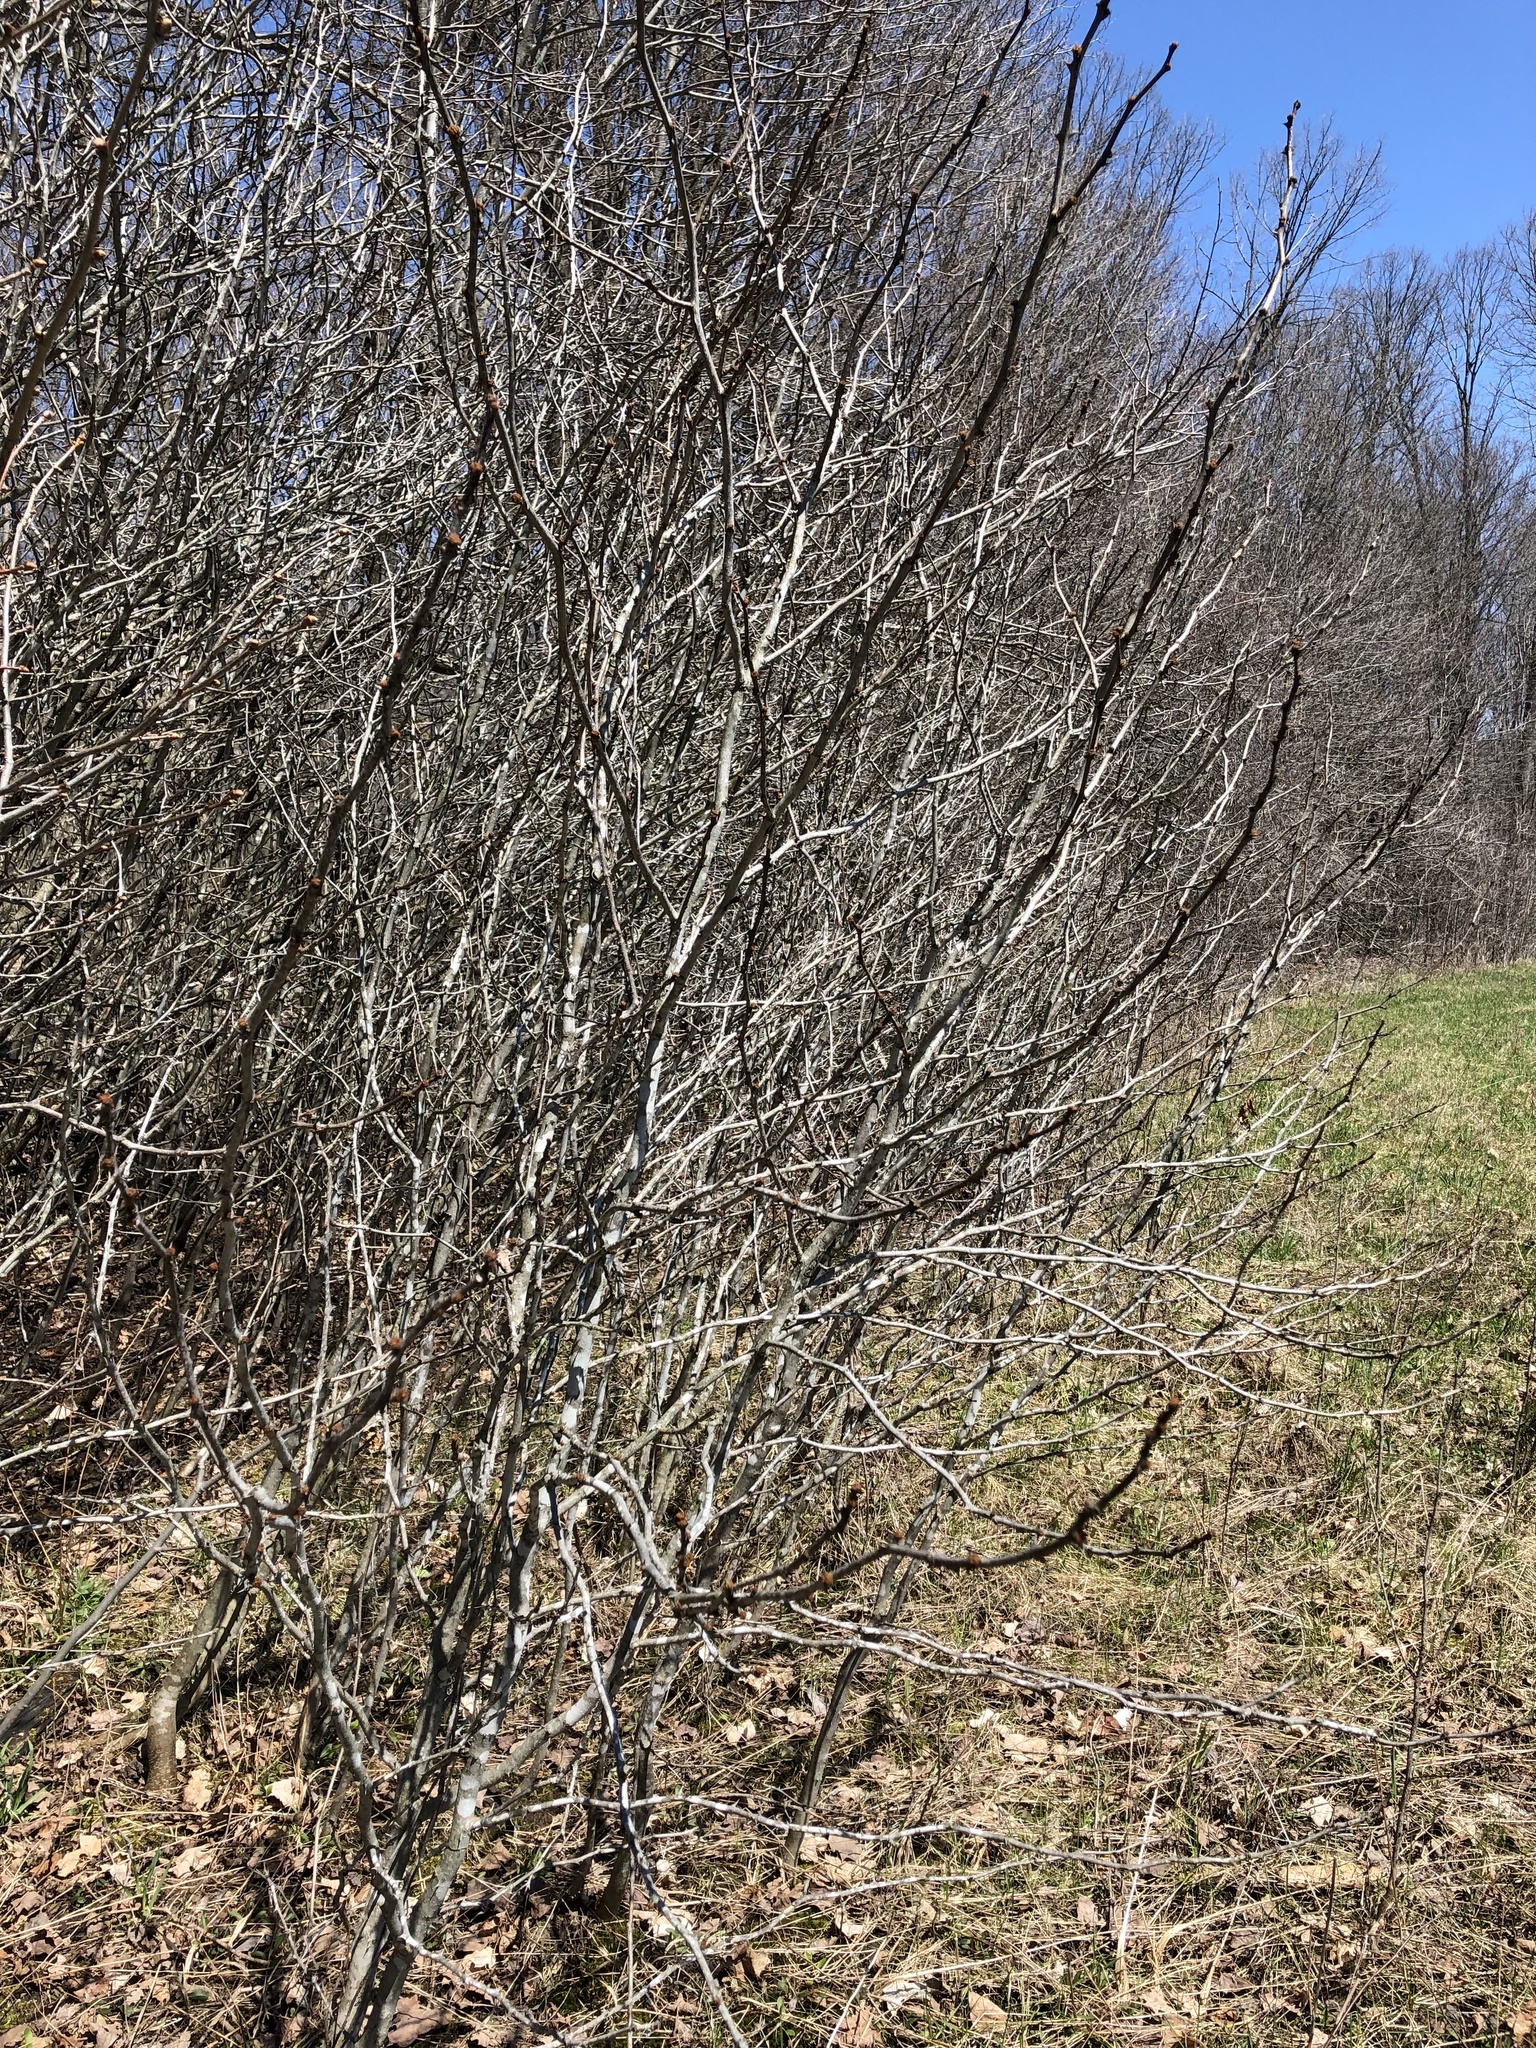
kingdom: Plantae
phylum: Tracheophyta
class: Magnoliopsida
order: Sapindales
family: Rutaceae
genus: Zanthoxylum
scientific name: Zanthoxylum americanum
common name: Northern prickly-ash
